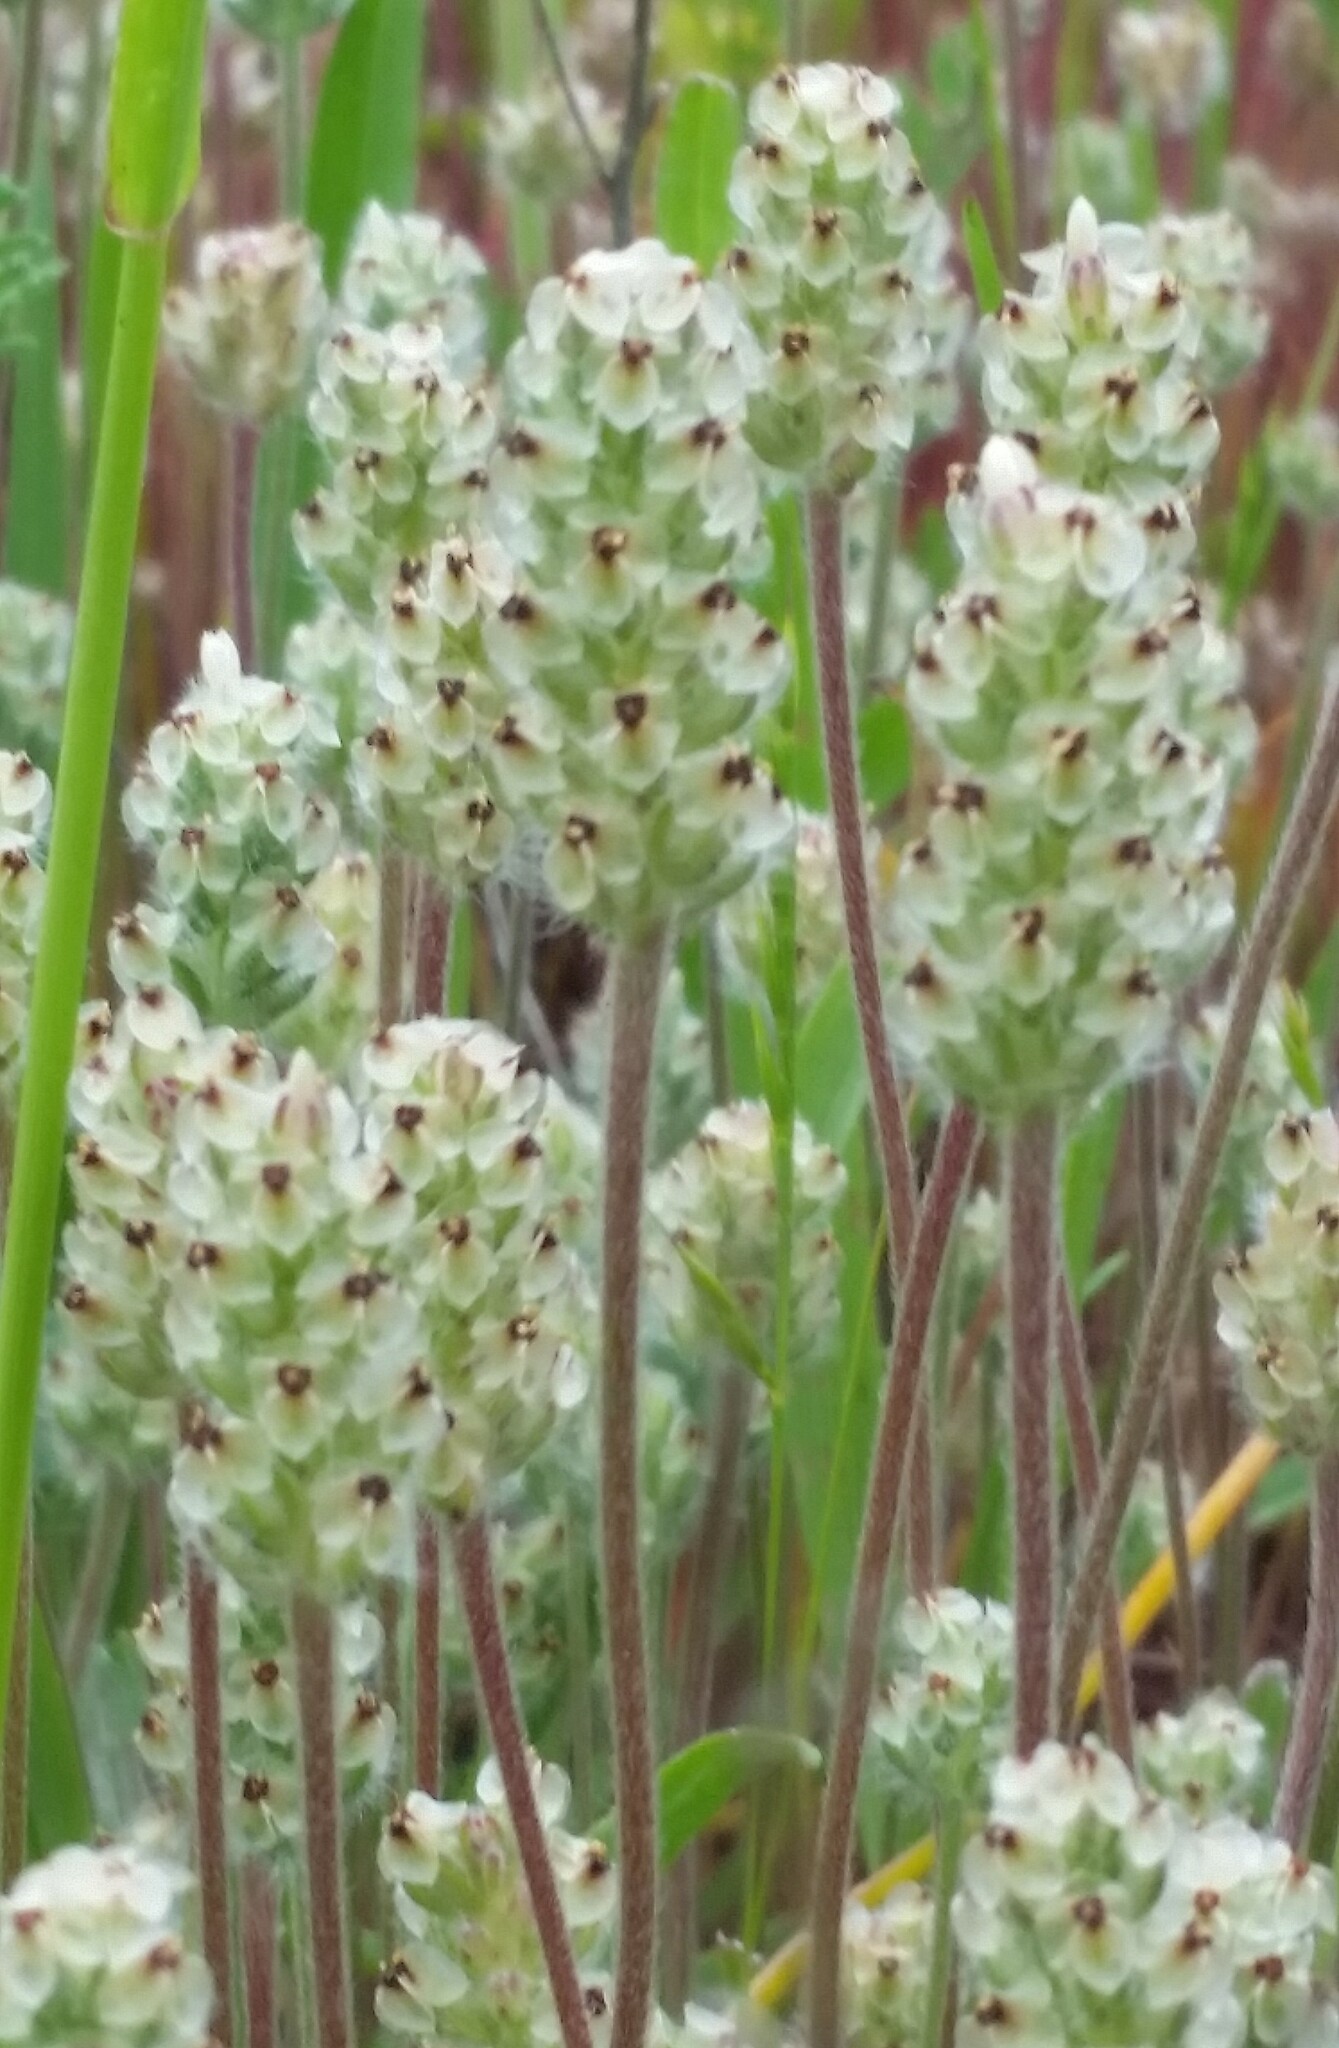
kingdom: Plantae
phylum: Tracheophyta
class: Magnoliopsida
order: Lamiales
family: Plantaginaceae
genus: Plantago
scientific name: Plantago erecta
